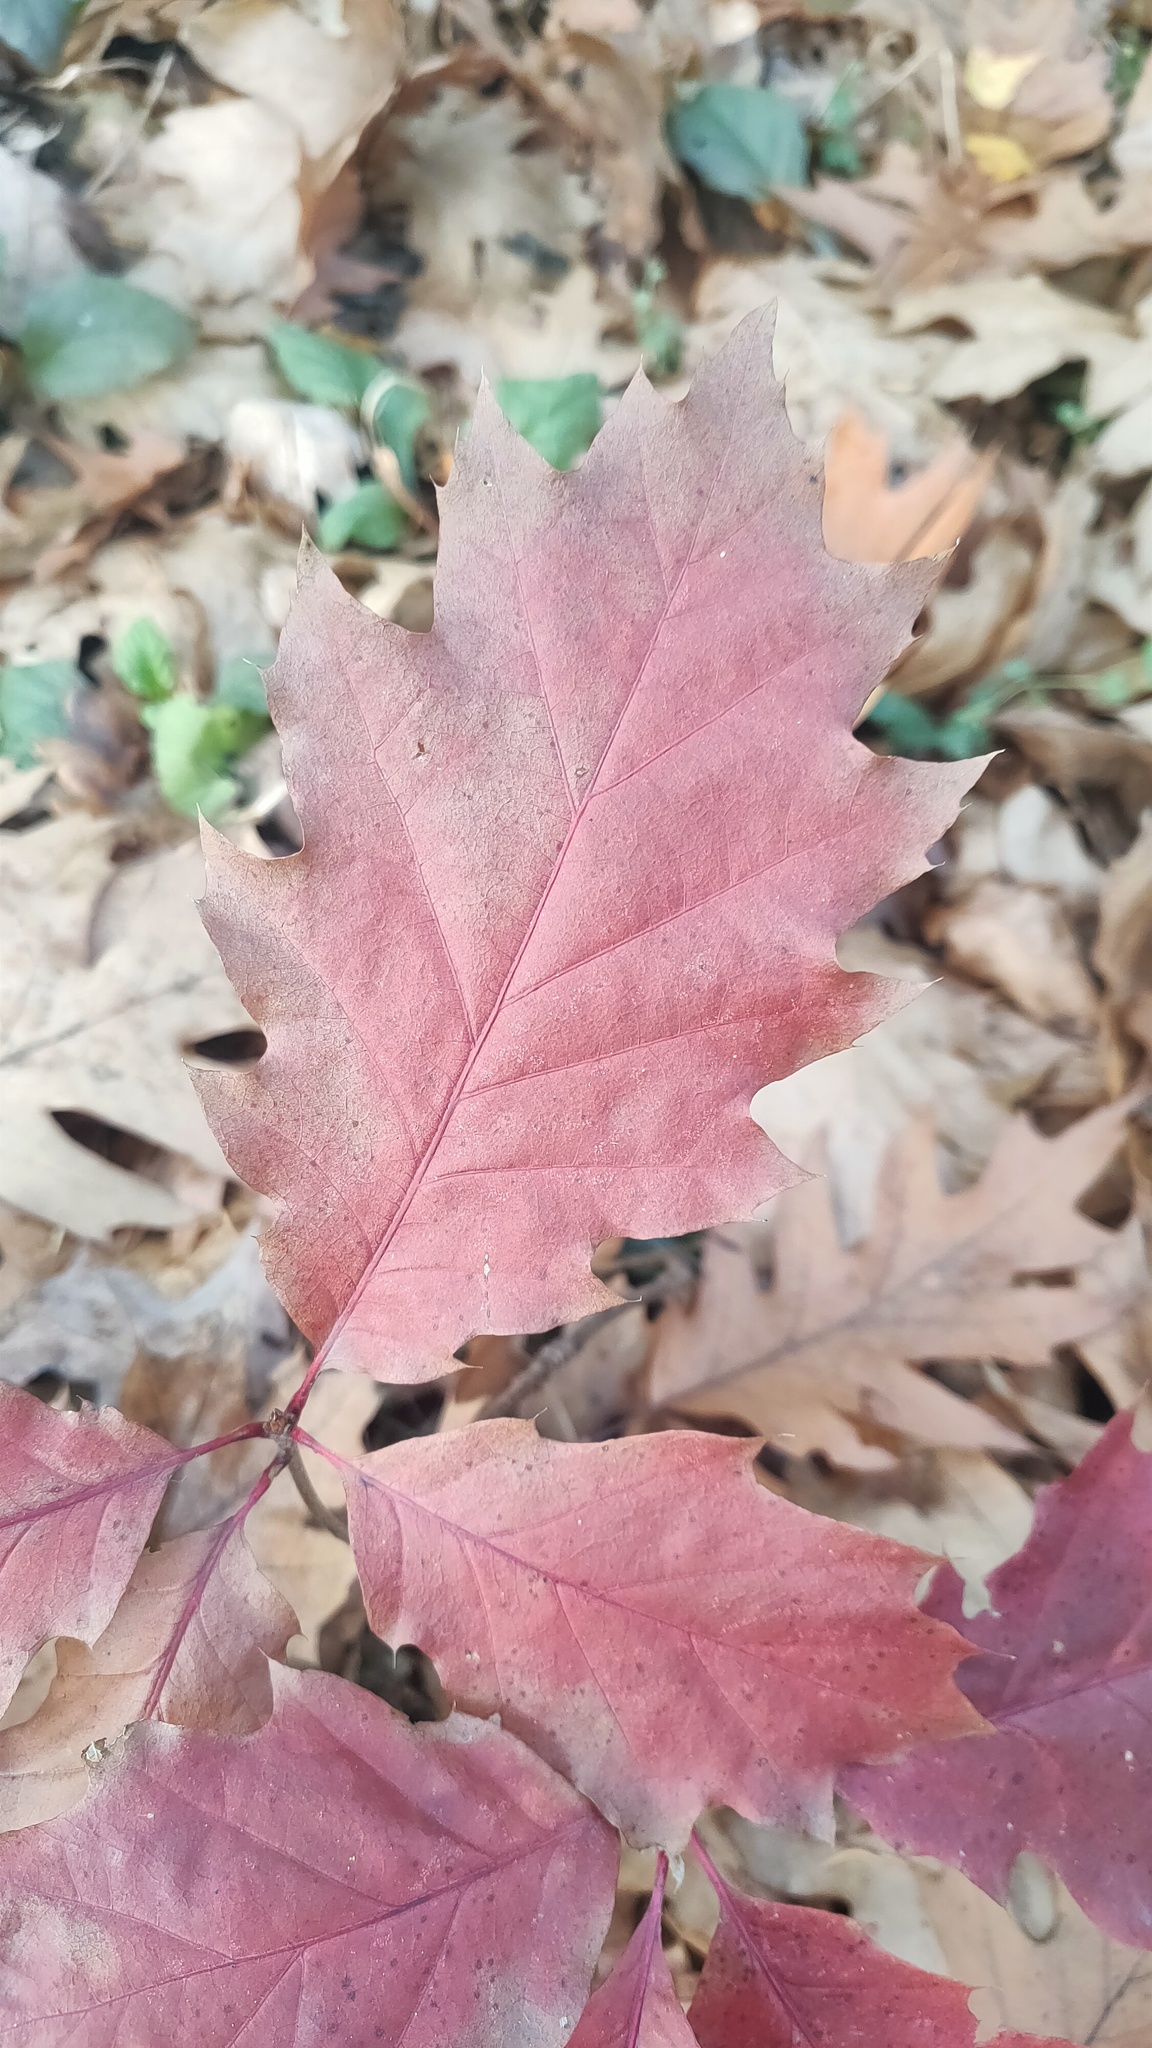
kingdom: Plantae
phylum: Tracheophyta
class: Magnoliopsida
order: Fagales
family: Fagaceae
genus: Quercus
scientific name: Quercus rubra
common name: Red oak
